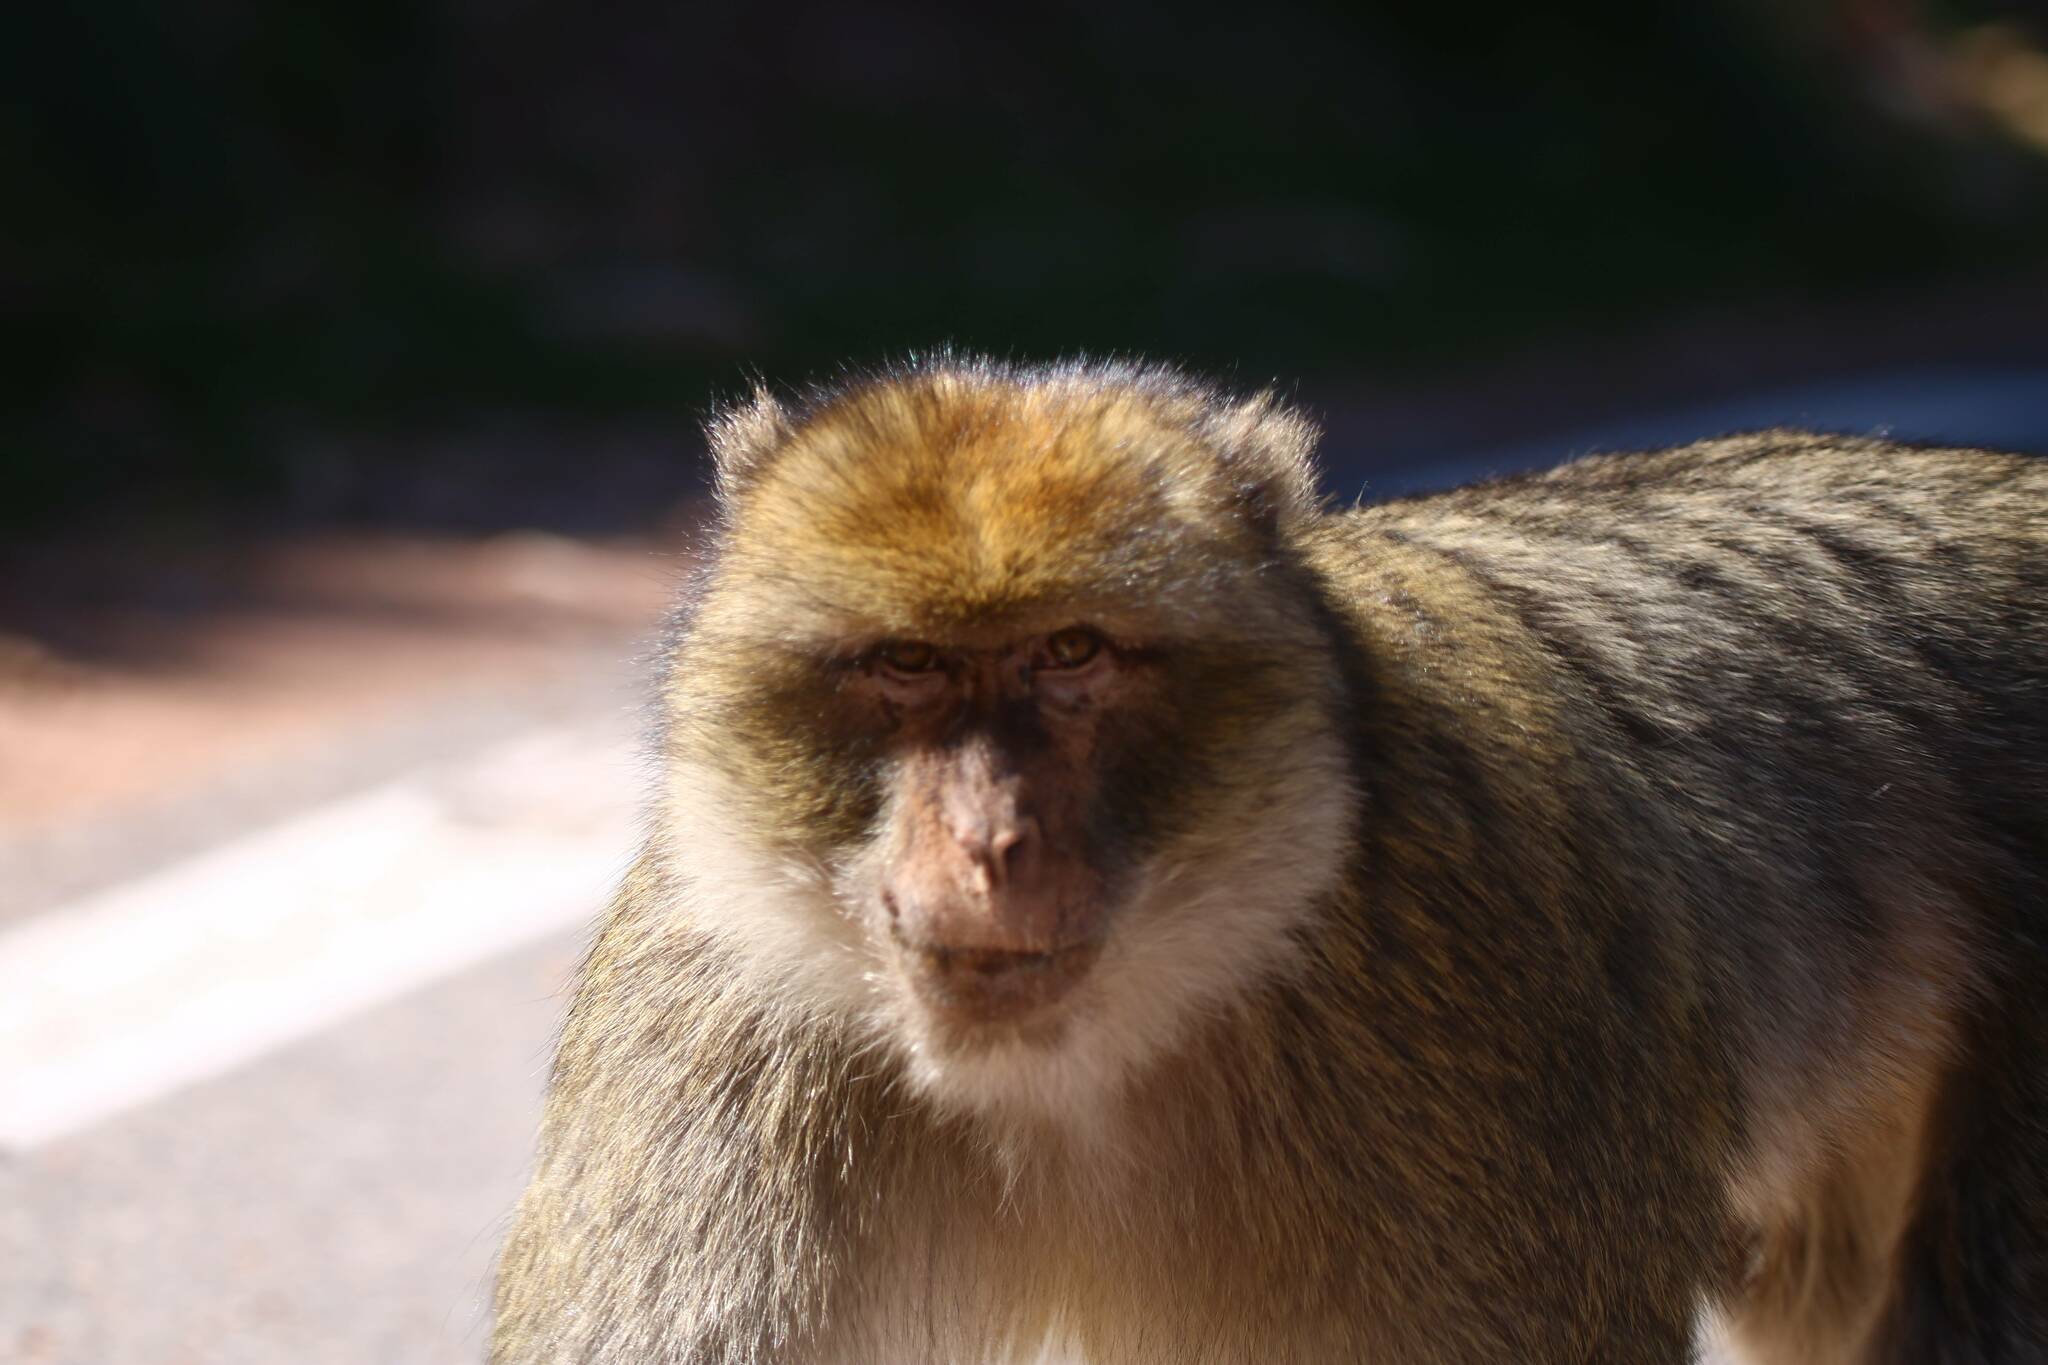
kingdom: Animalia
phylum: Chordata
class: Mammalia
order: Primates
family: Cercopithecidae
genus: Macaca
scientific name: Macaca sylvanus
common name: Barbary macaque
